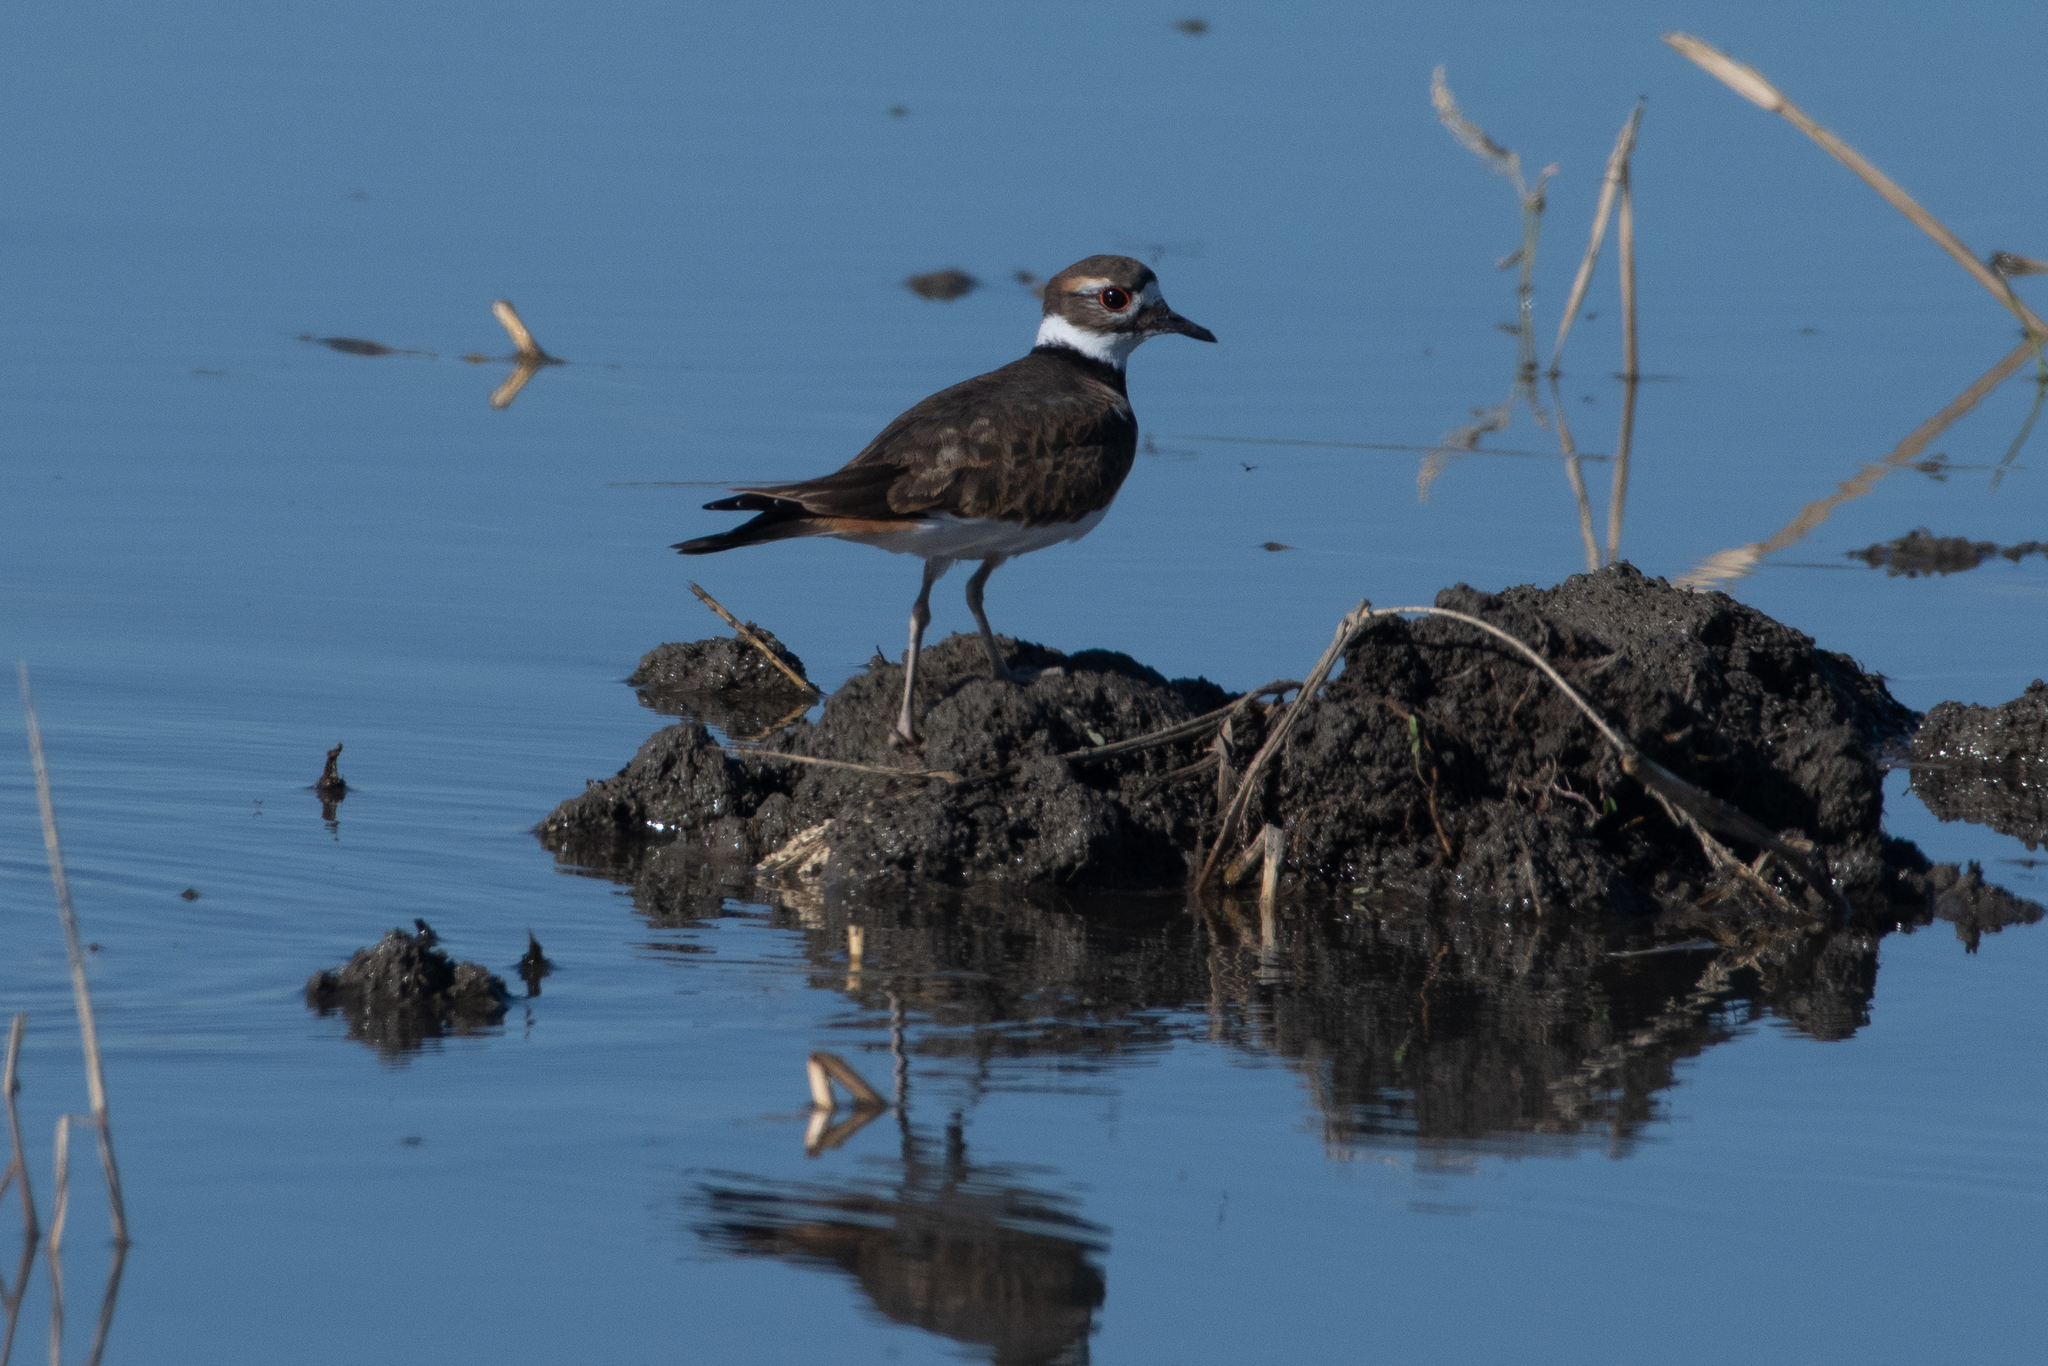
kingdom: Animalia
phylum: Chordata
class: Aves
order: Charadriiformes
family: Charadriidae
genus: Charadrius
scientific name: Charadrius vociferus
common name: Killdeer
